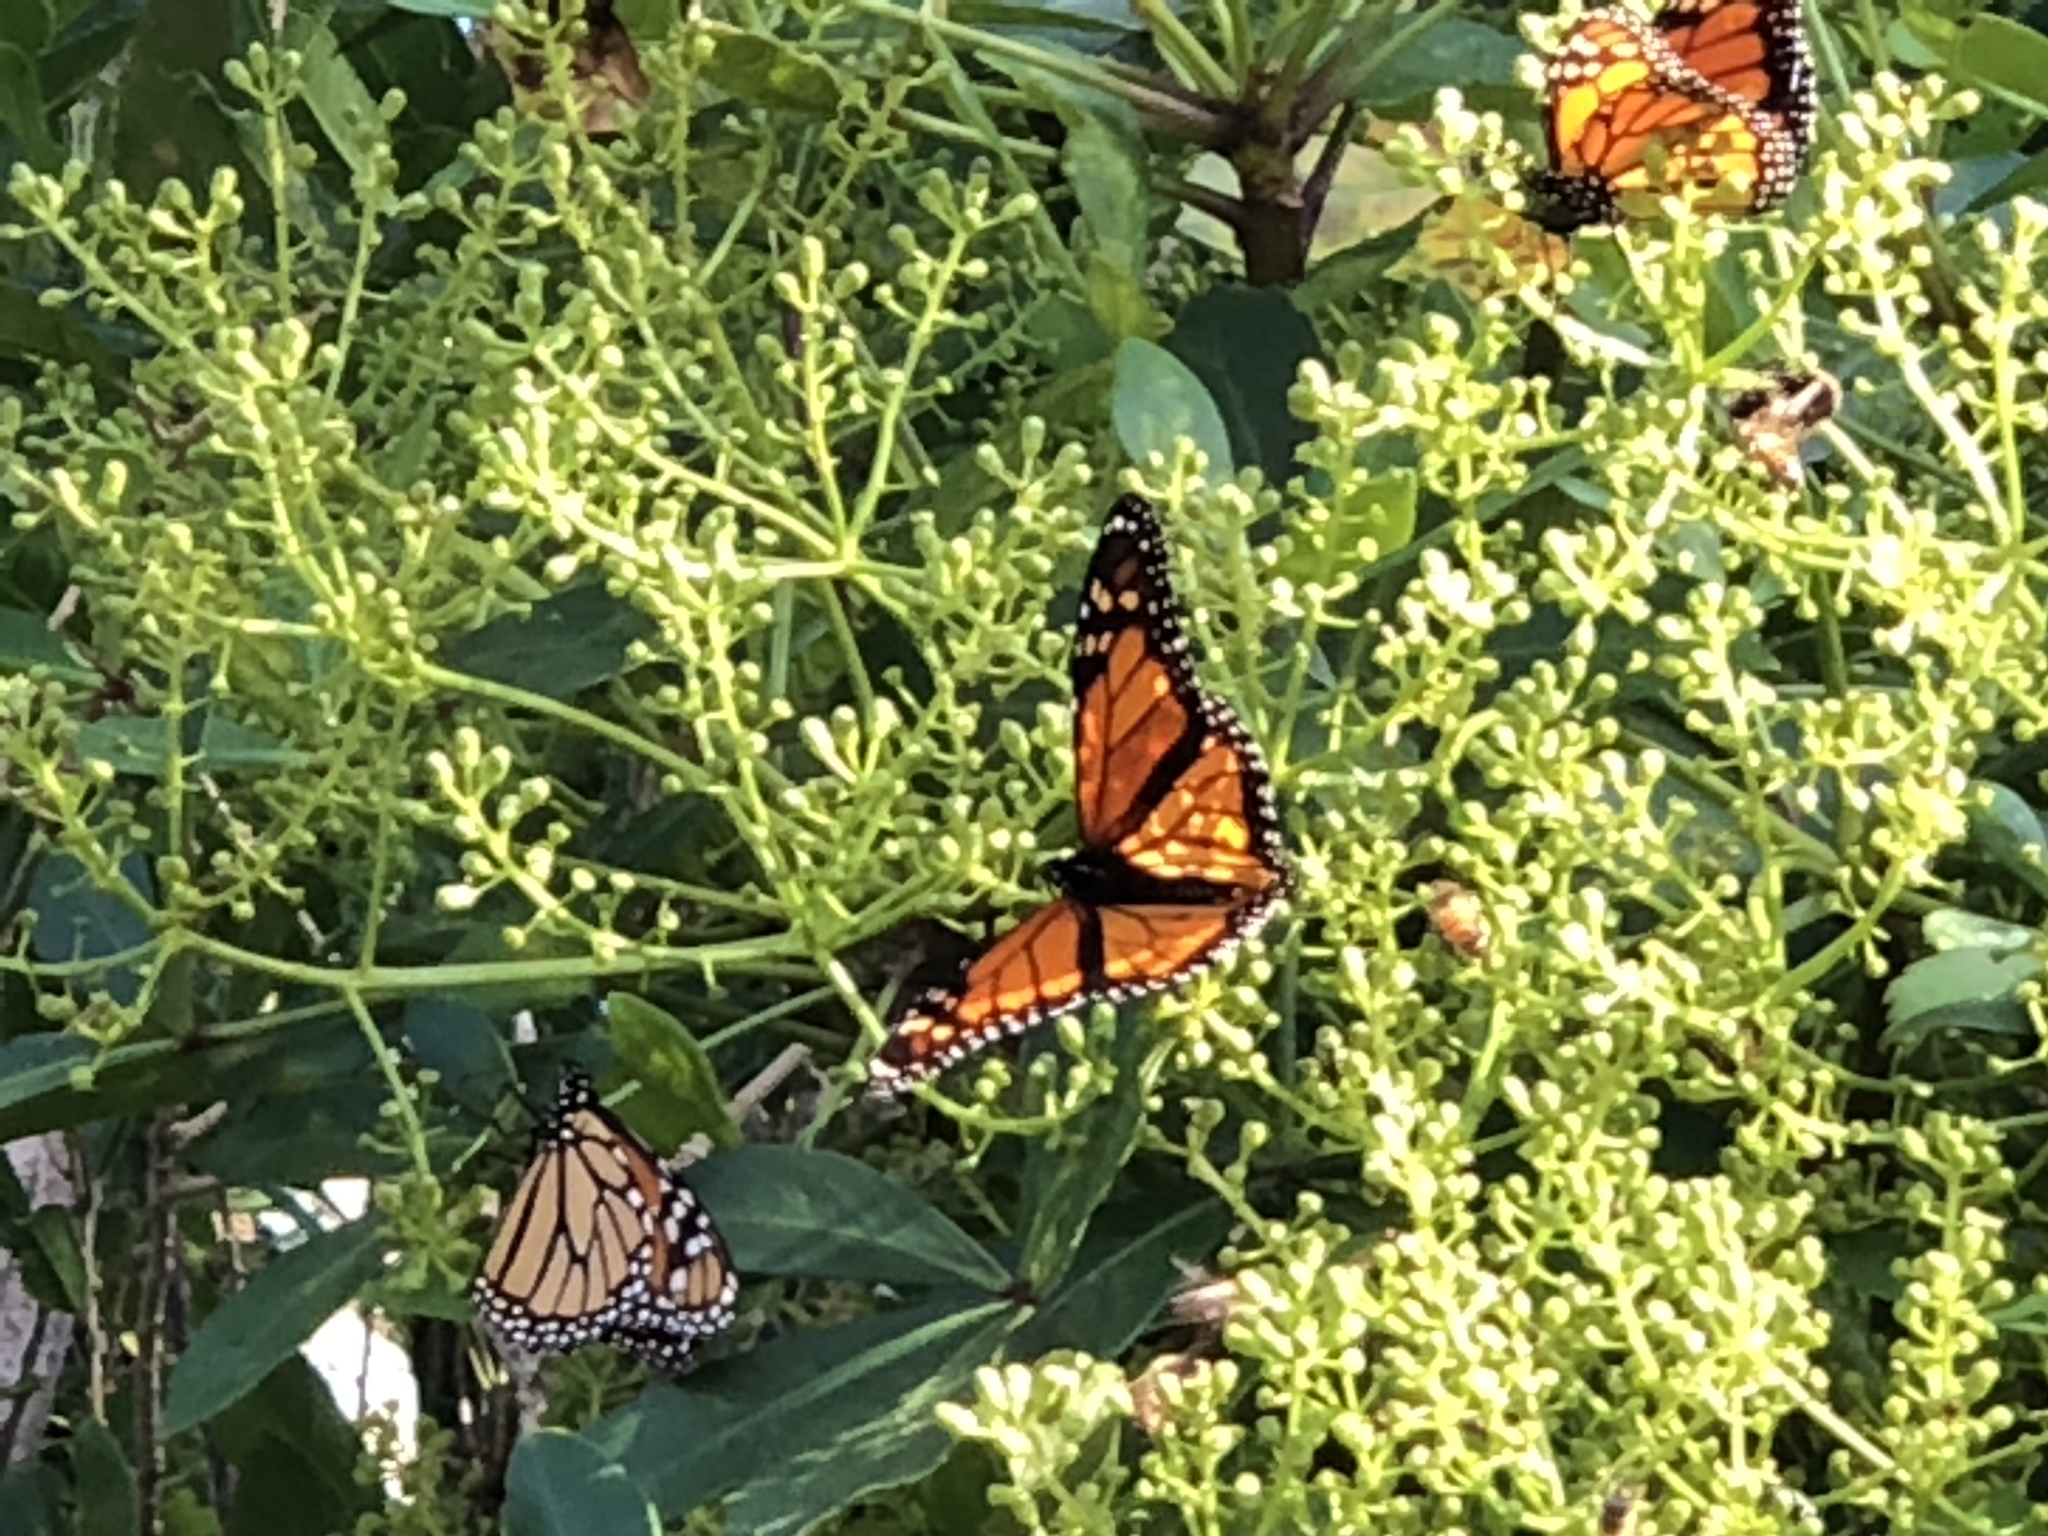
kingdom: Animalia
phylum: Arthropoda
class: Insecta
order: Lepidoptera
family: Nymphalidae
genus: Danaus
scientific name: Danaus plexippus
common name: Monarch
